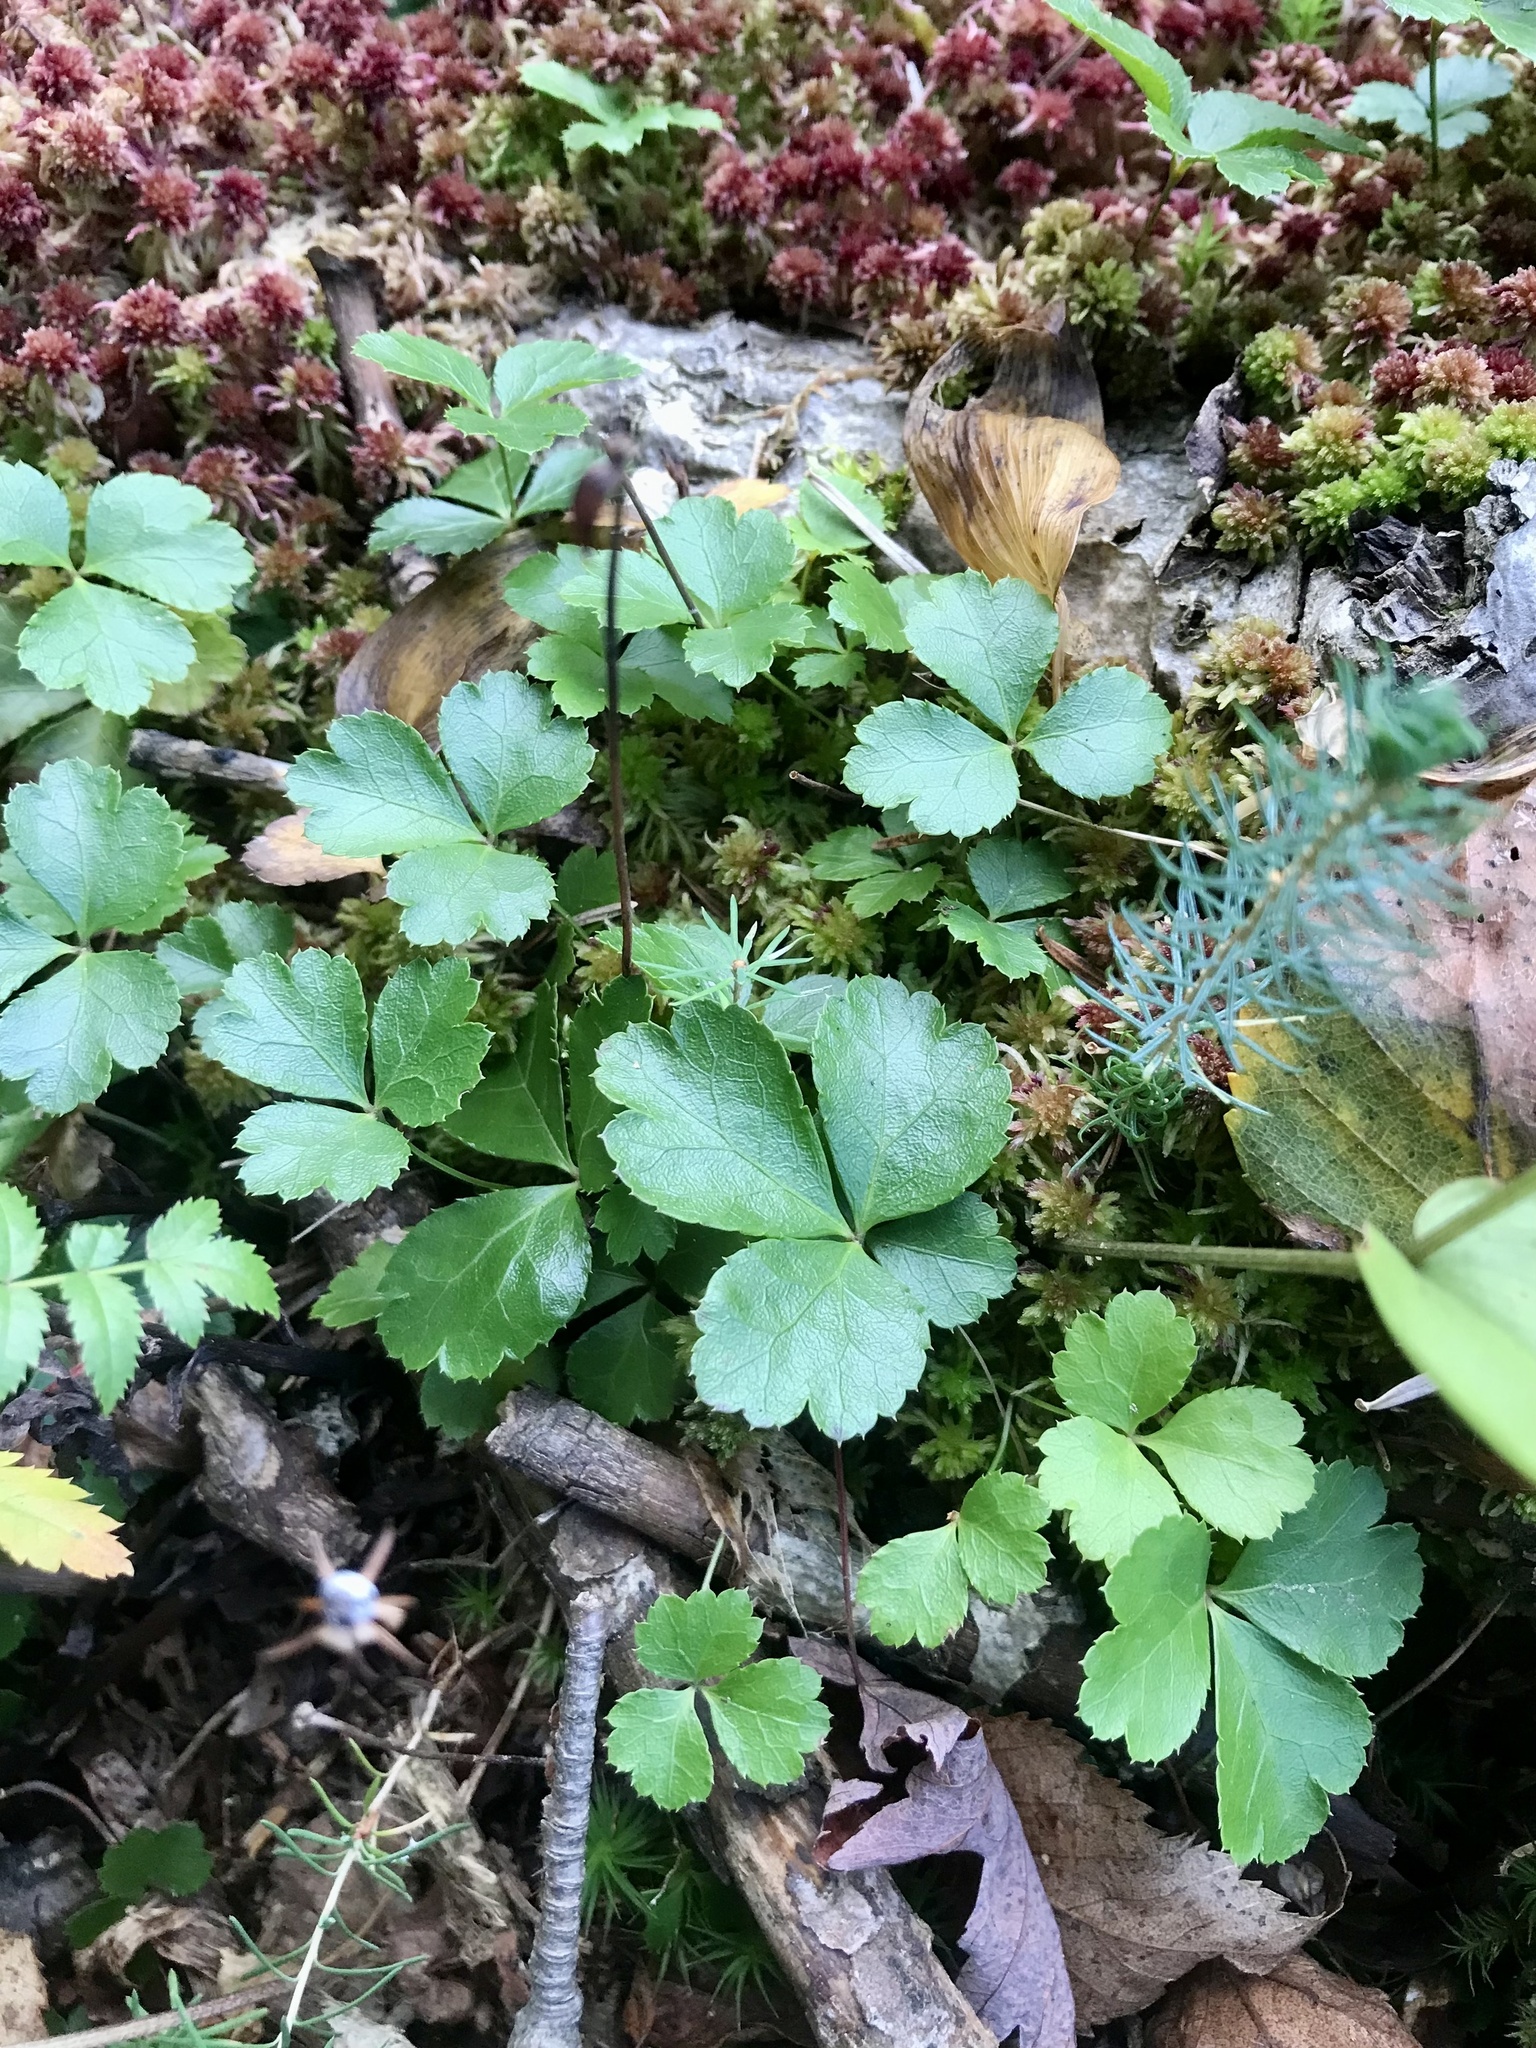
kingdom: Plantae
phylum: Tracheophyta
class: Magnoliopsida
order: Ranunculales
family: Ranunculaceae
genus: Coptis
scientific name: Coptis trifolia
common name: Canker-root
